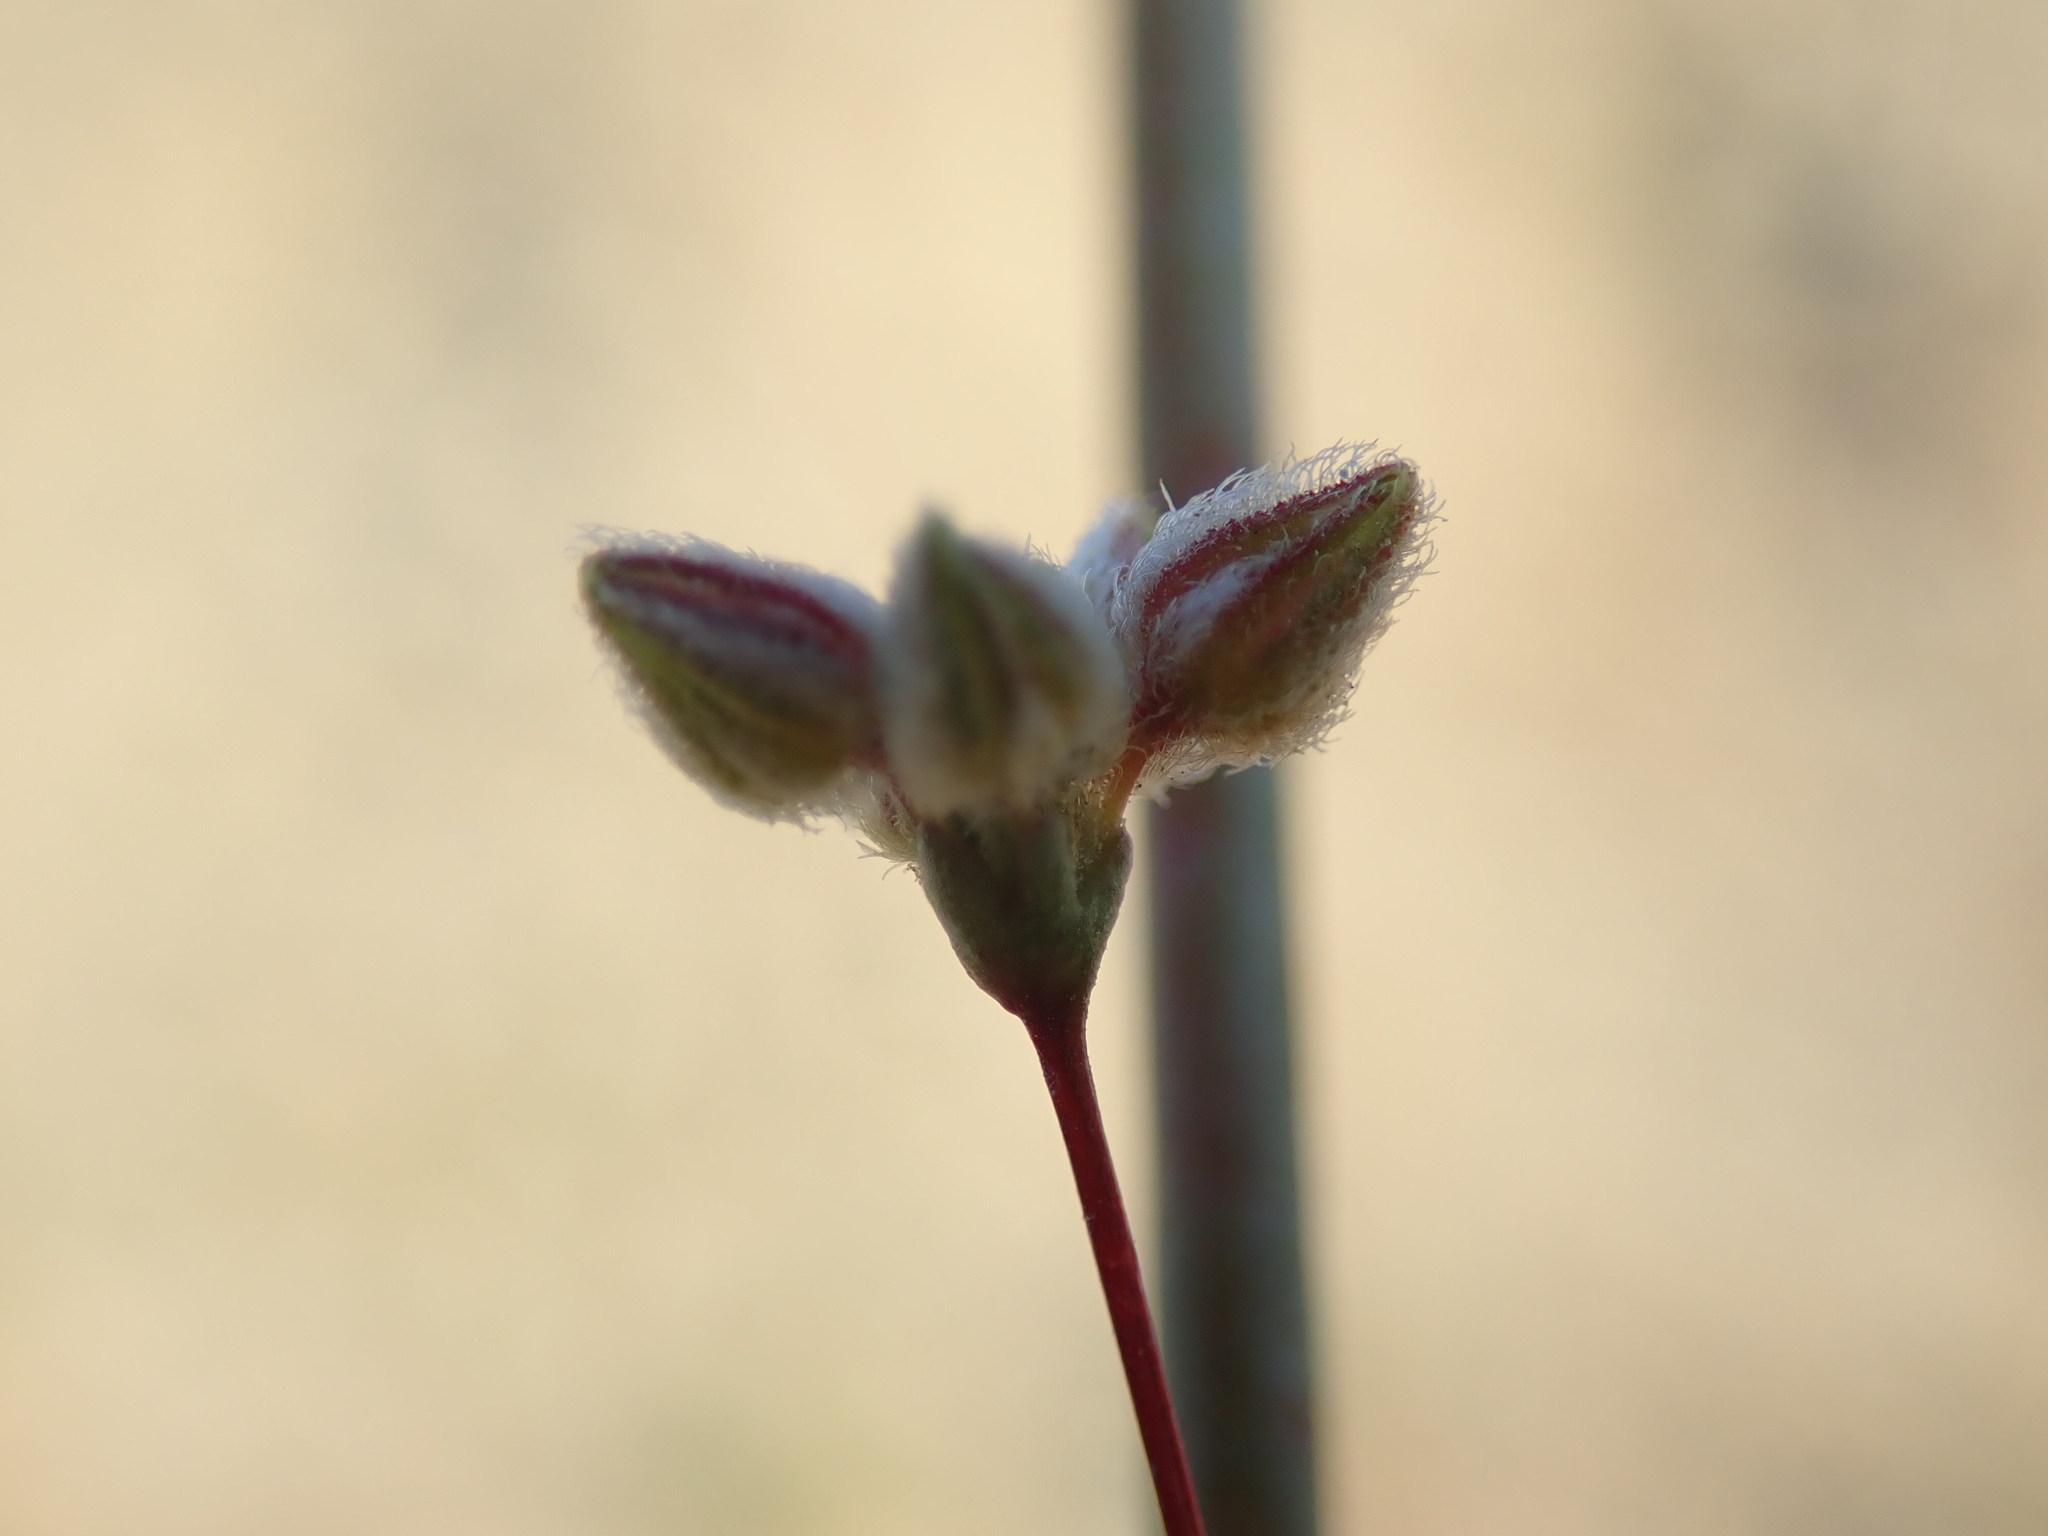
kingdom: Plantae
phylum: Tracheophyta
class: Magnoliopsida
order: Caryophyllales
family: Polygonaceae
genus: Eriogonum
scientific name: Eriogonum inflatum
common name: Desert trumpet
